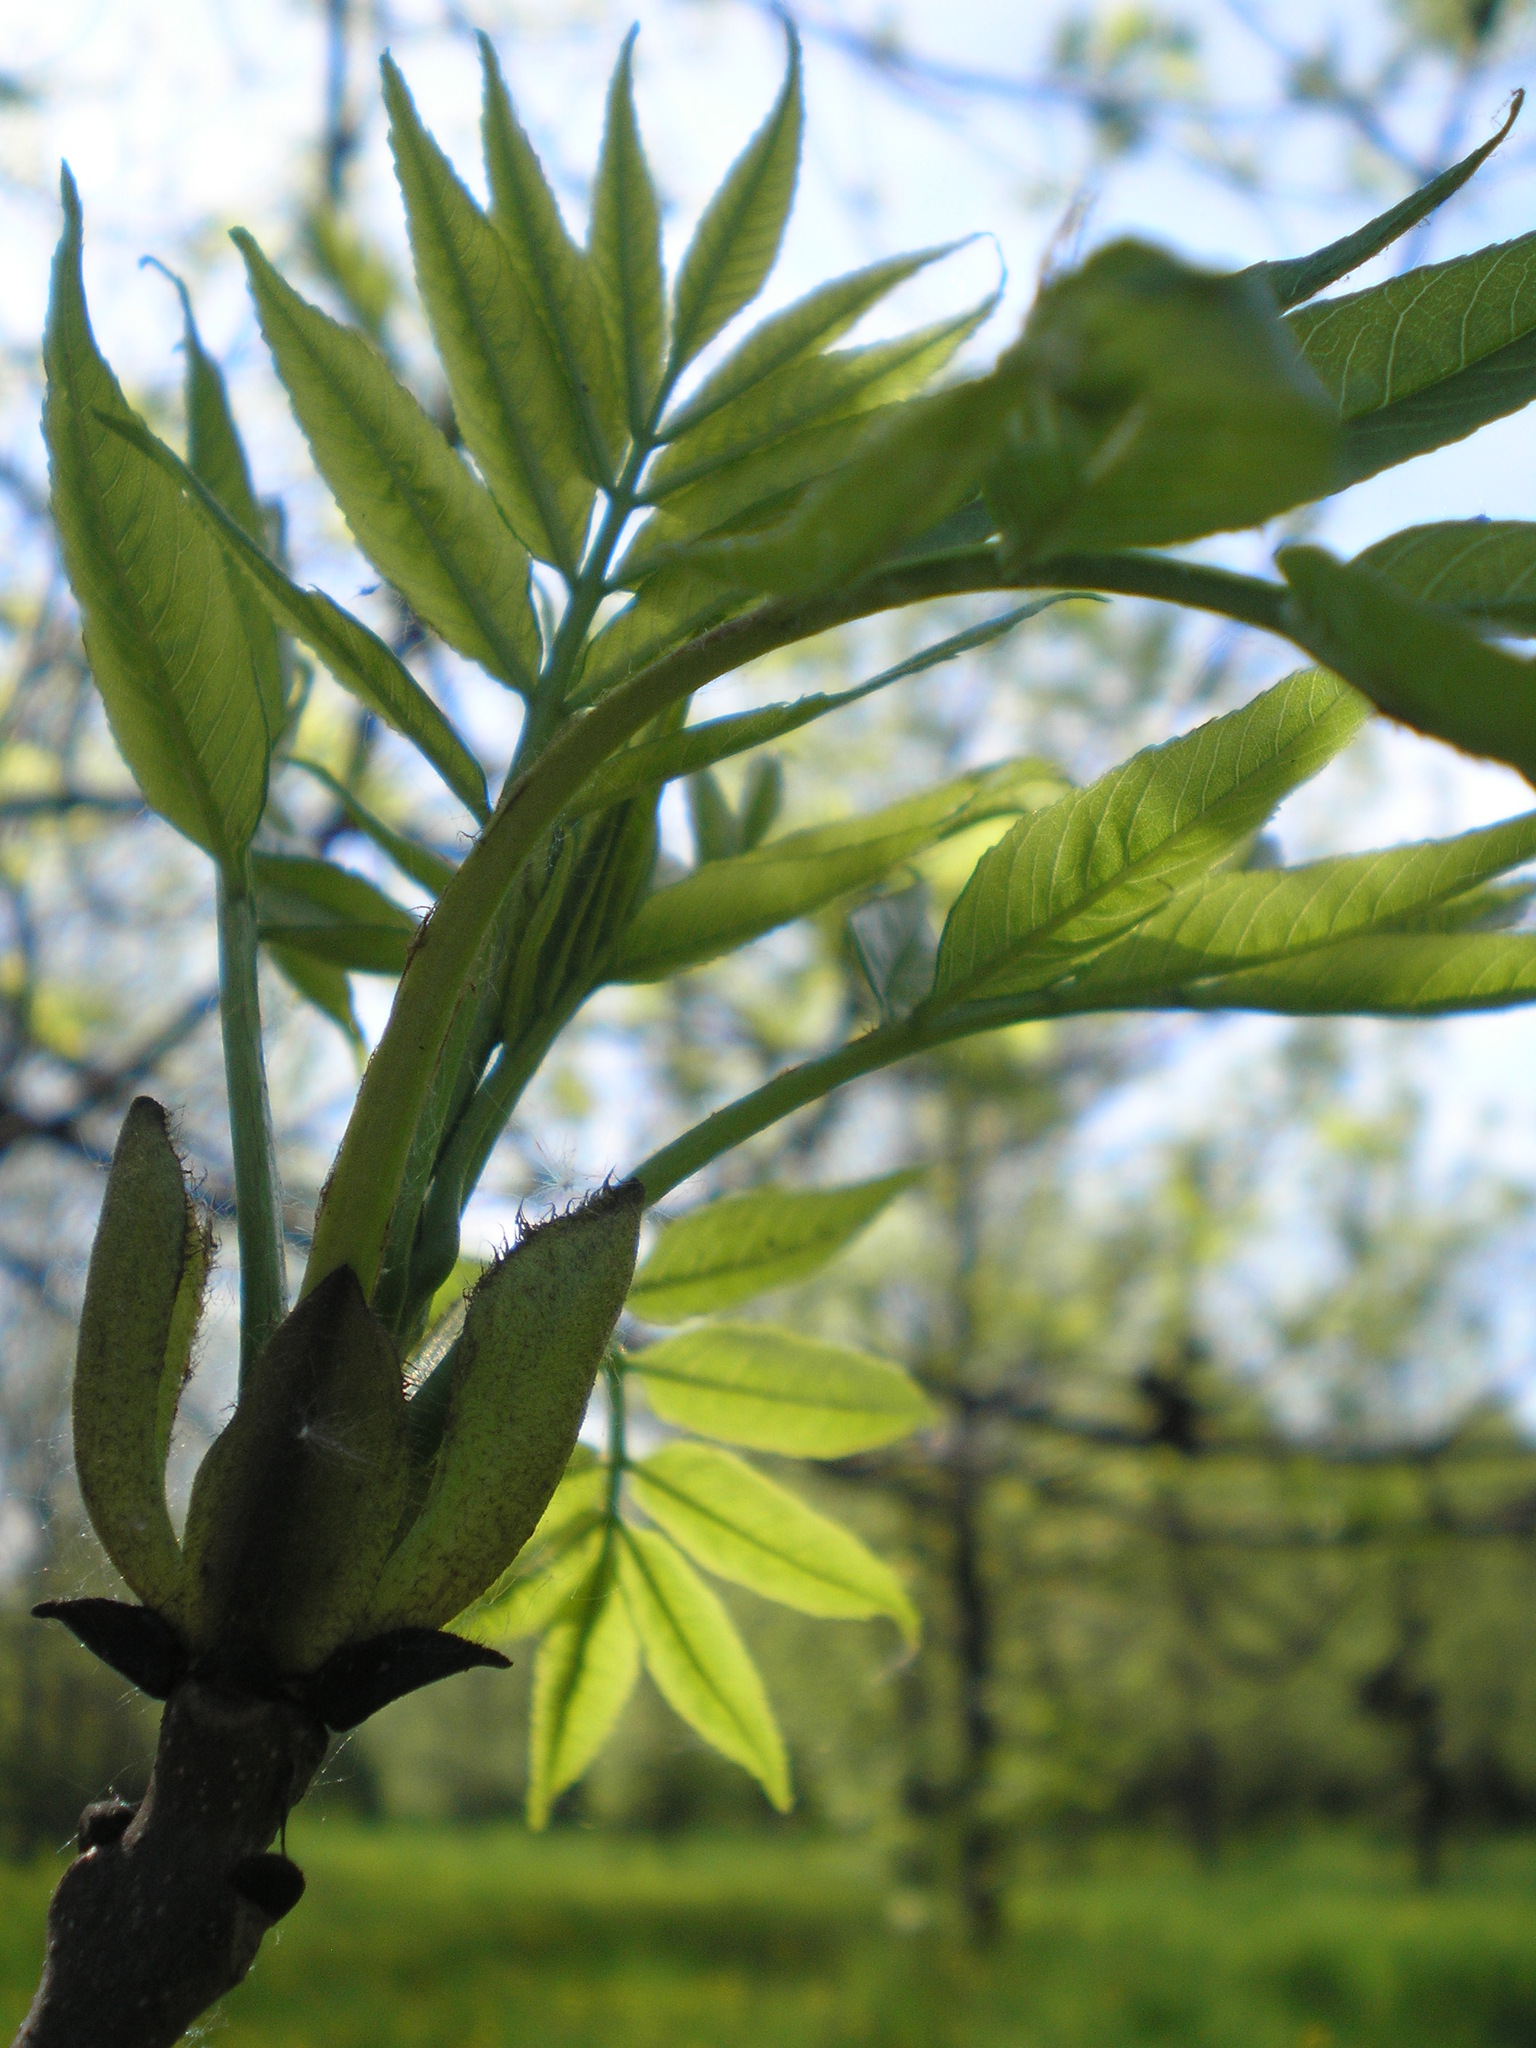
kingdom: Plantae
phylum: Tracheophyta
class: Magnoliopsida
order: Lamiales
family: Oleaceae
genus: Fraxinus
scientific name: Fraxinus excelsior
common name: European ash
